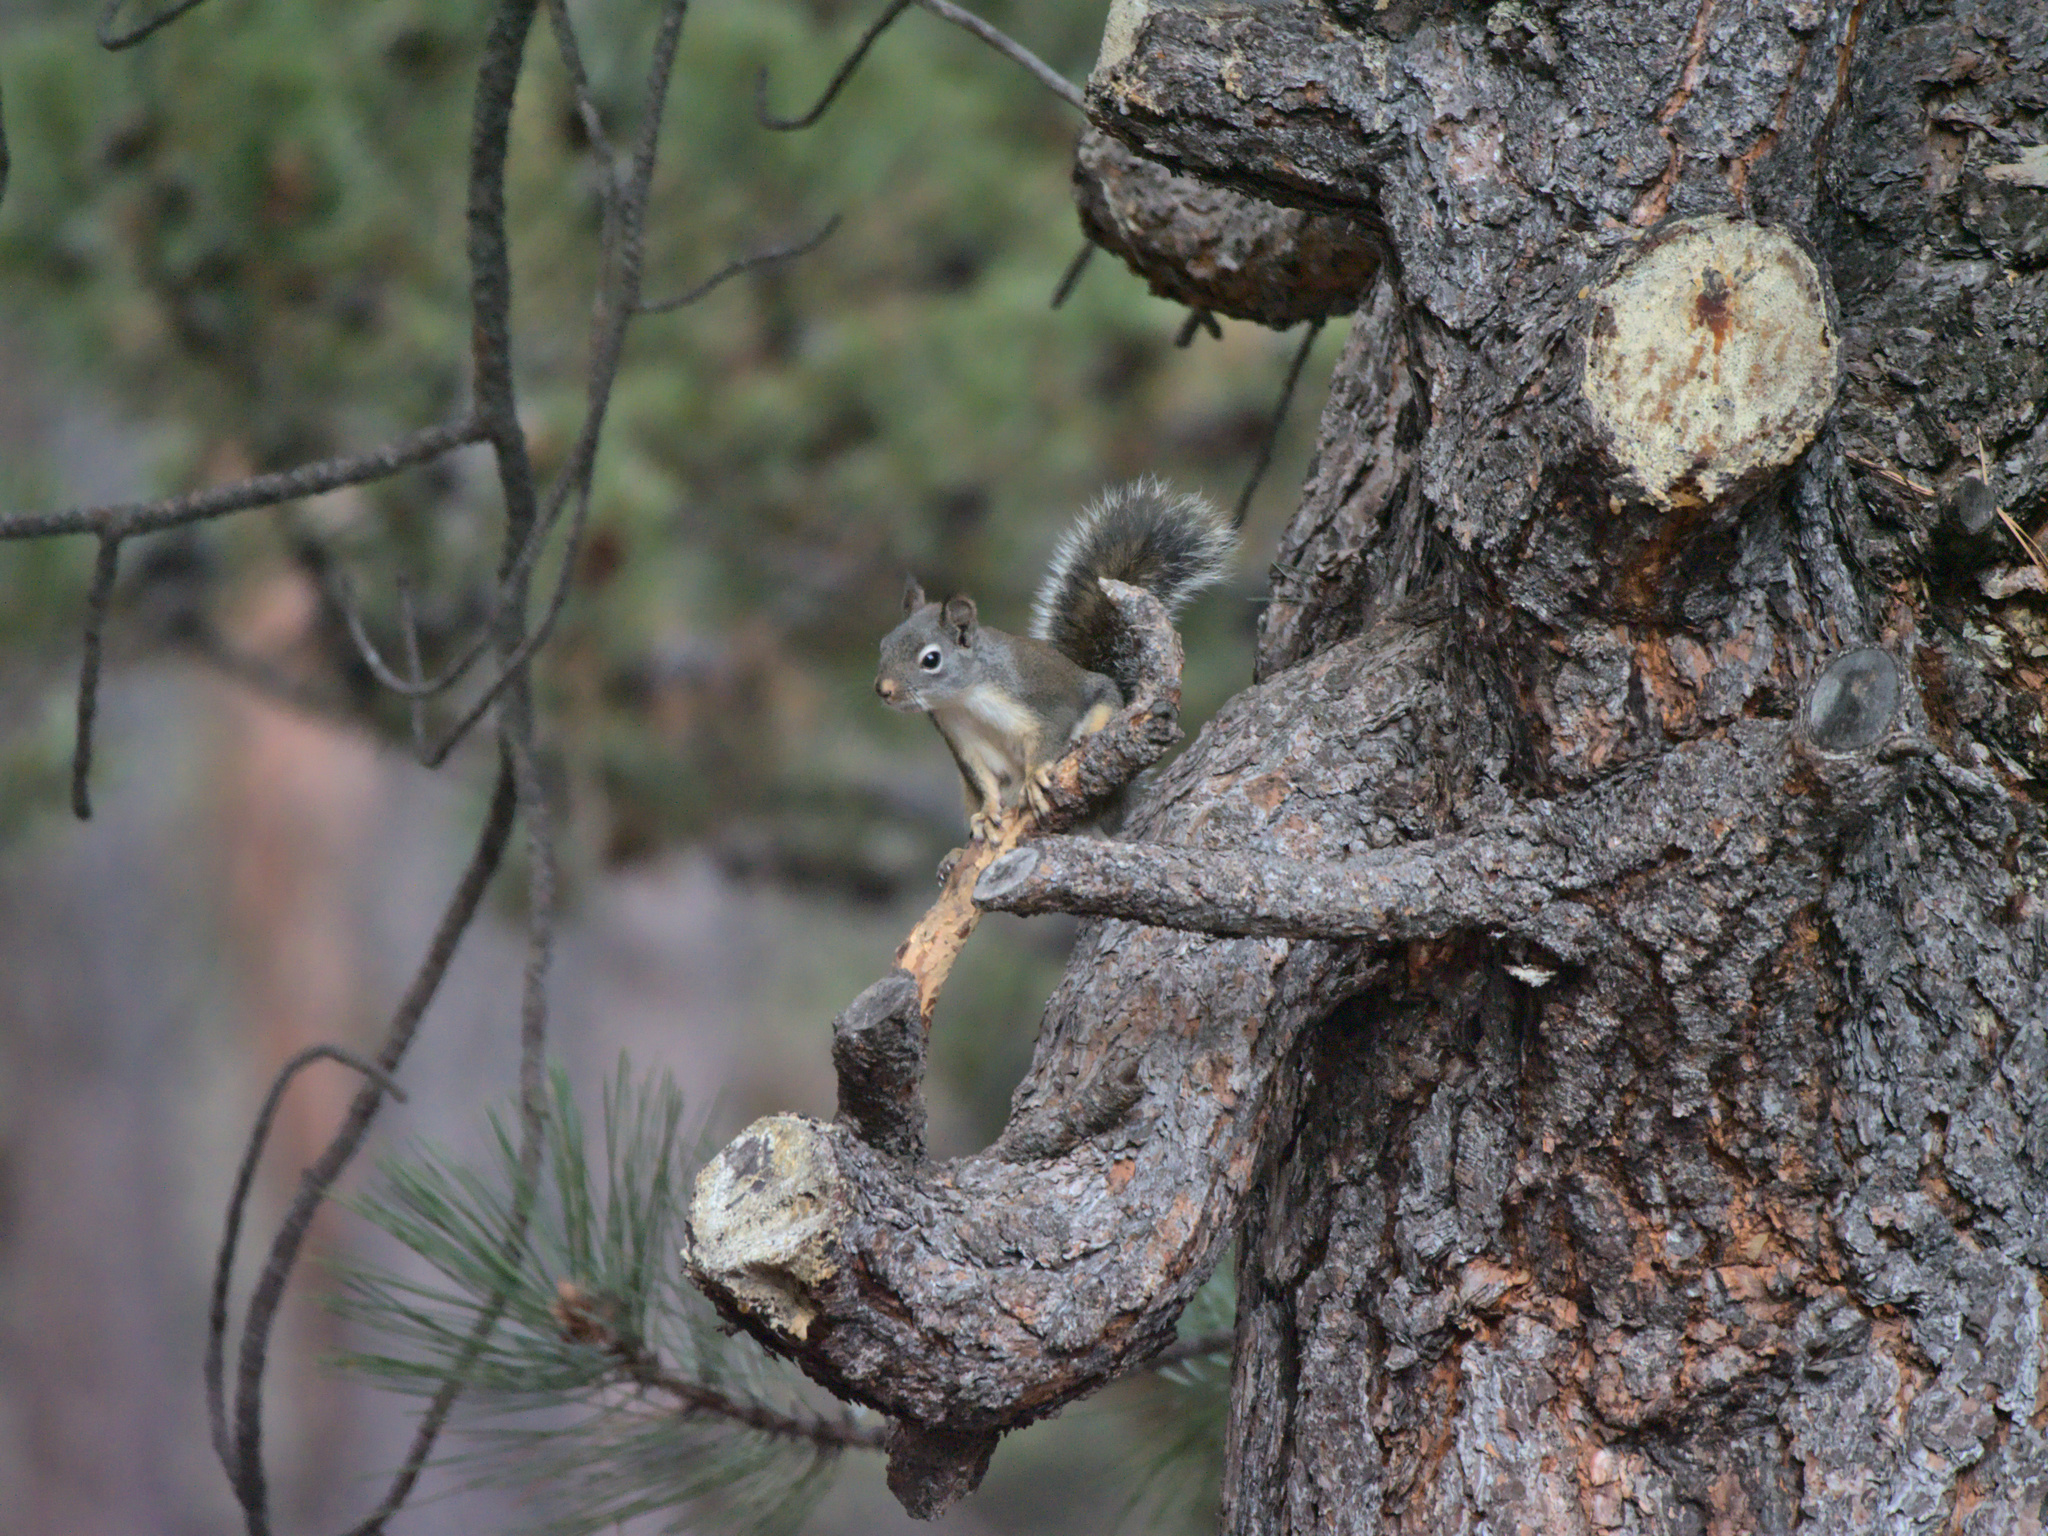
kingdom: Animalia
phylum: Chordata
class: Mammalia
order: Rodentia
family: Sciuridae
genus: Tamiasciurus
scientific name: Tamiasciurus douglasii
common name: Douglas's squirrel
